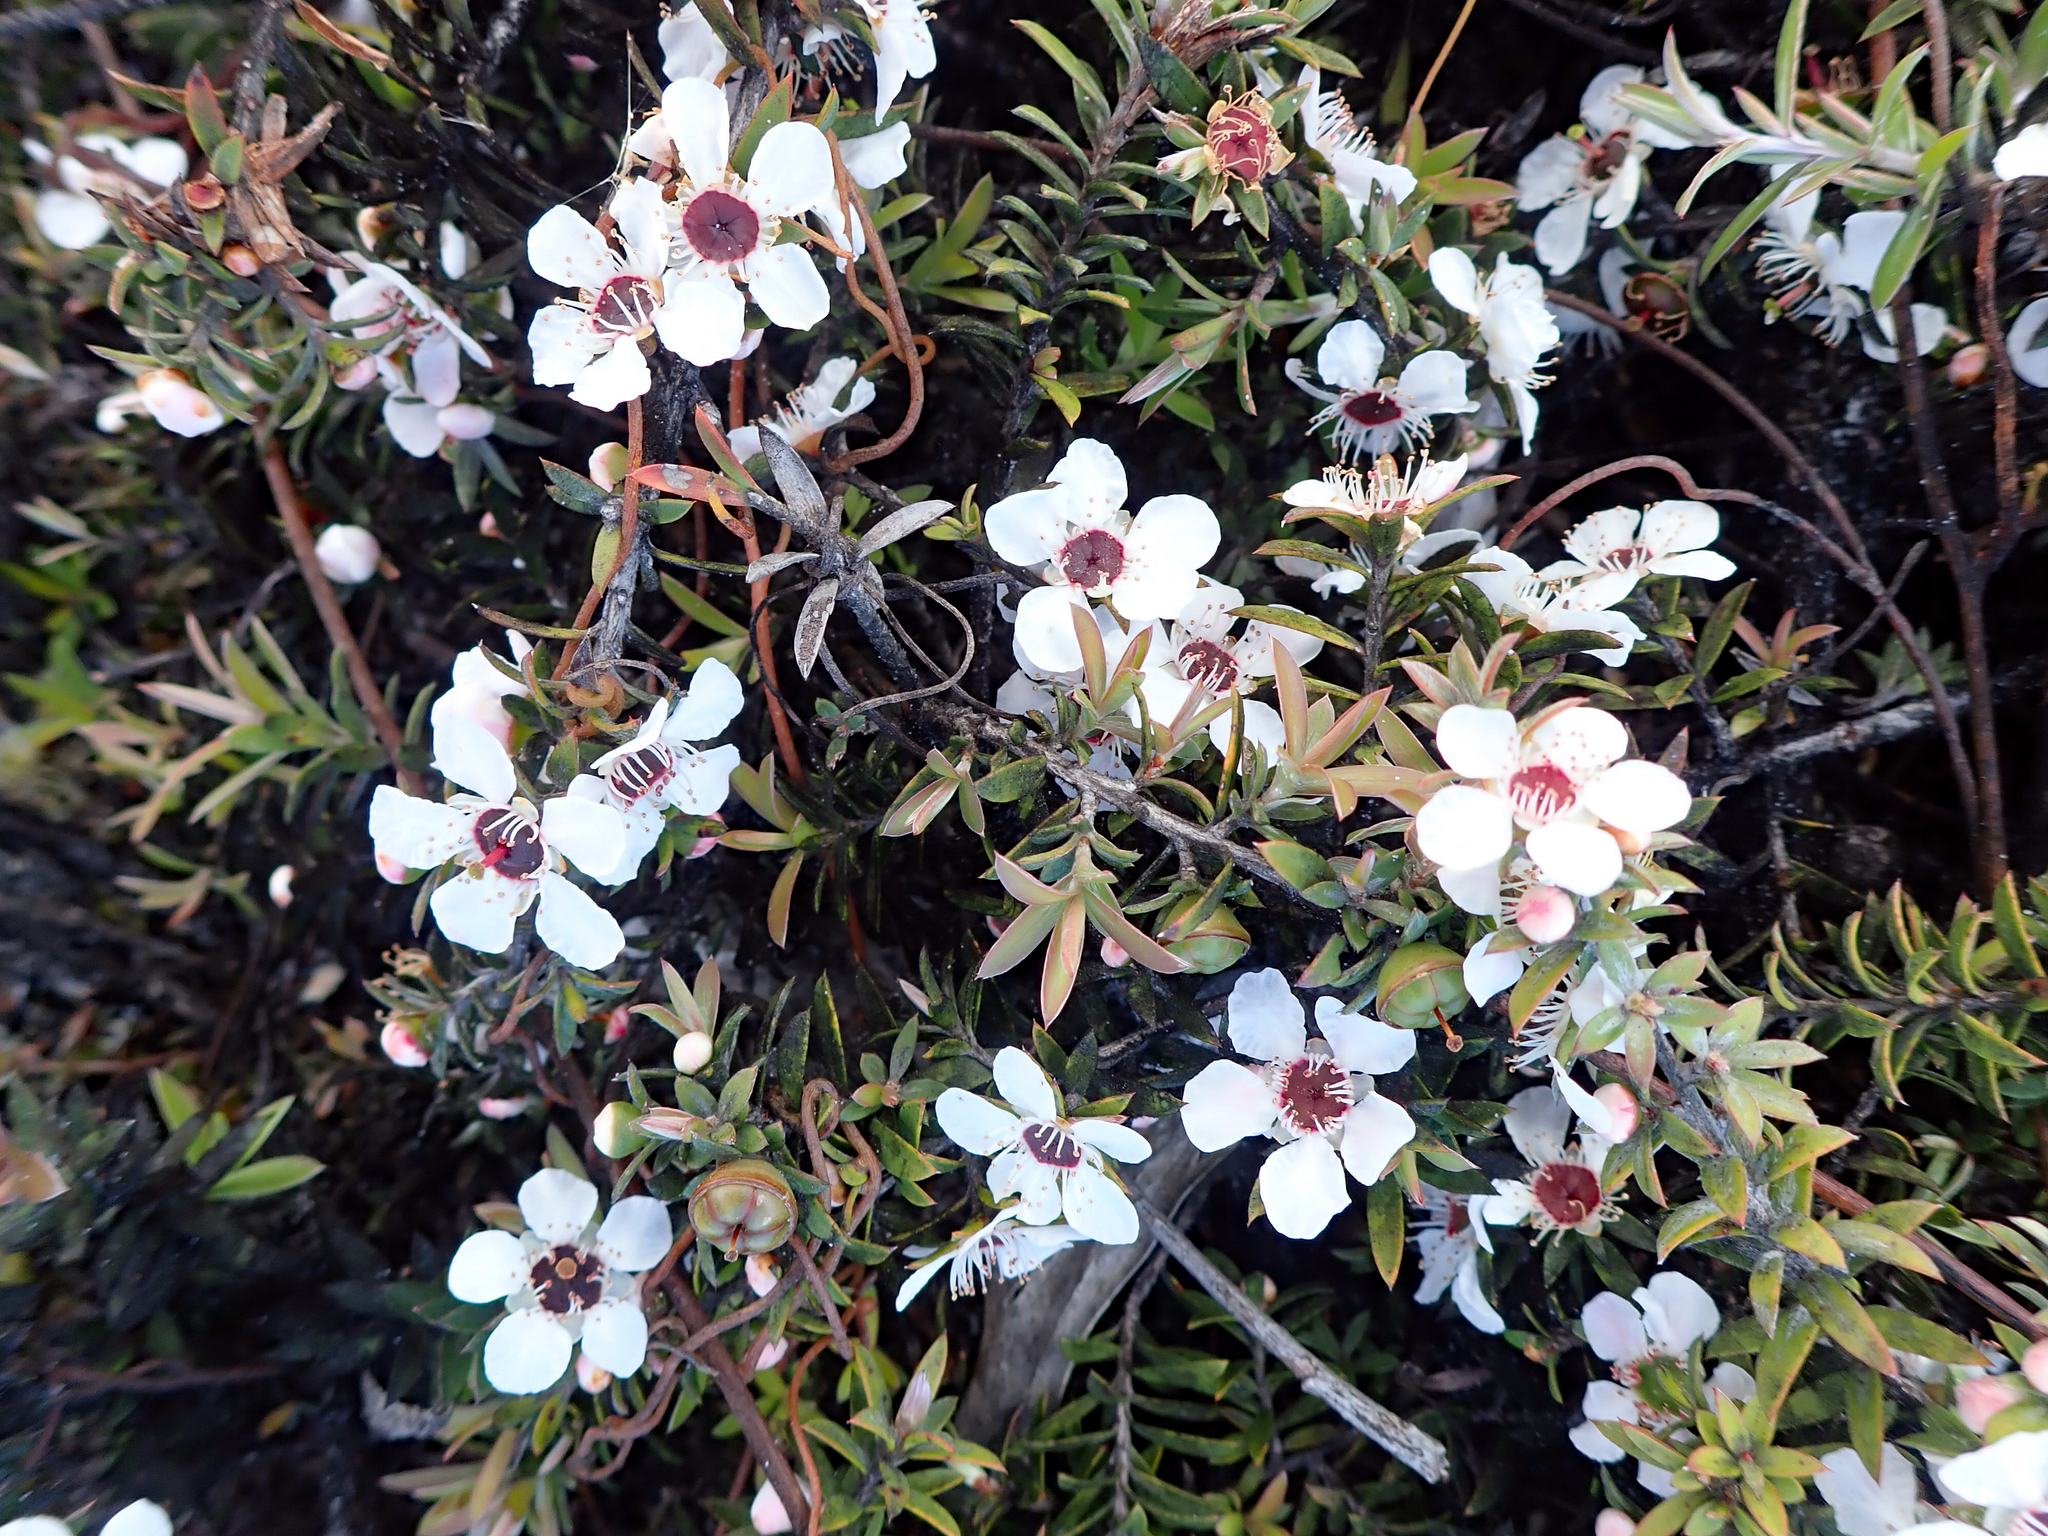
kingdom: Plantae
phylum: Tracheophyta
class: Magnoliopsida
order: Myrtales
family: Myrtaceae
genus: Leptospermum
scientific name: Leptospermum scoparium
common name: Broom tea-tree
